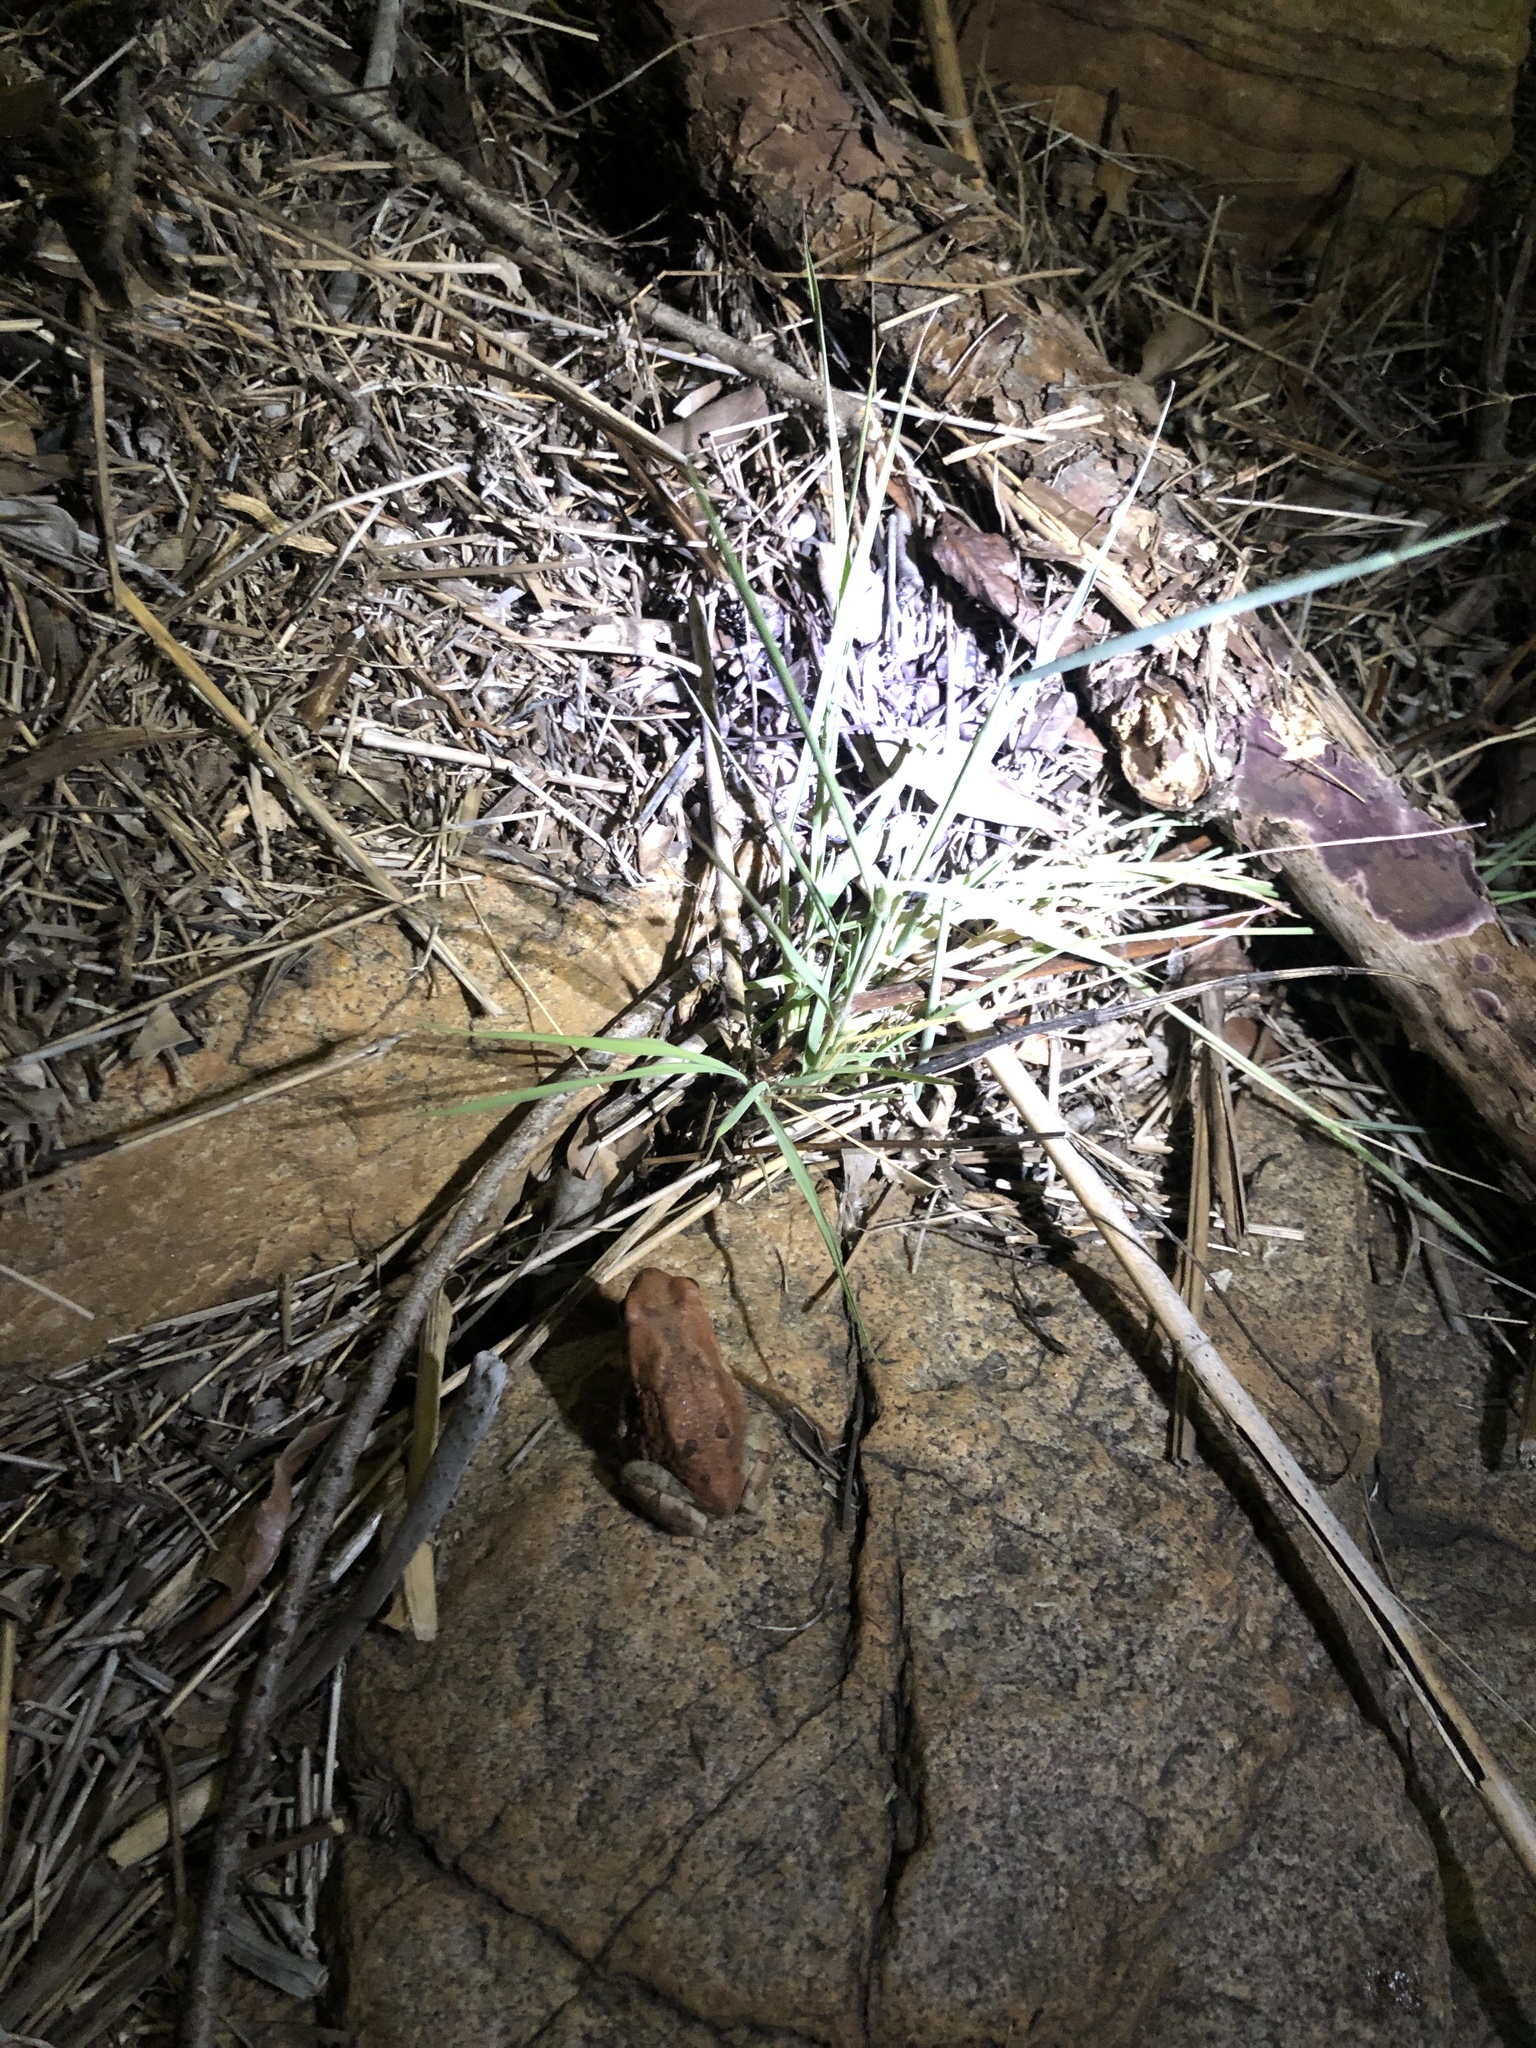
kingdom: Animalia
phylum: Chordata
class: Amphibia
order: Anura
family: Bufonidae
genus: Schismaderma
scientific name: Schismaderma carens
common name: African split-skin toad
